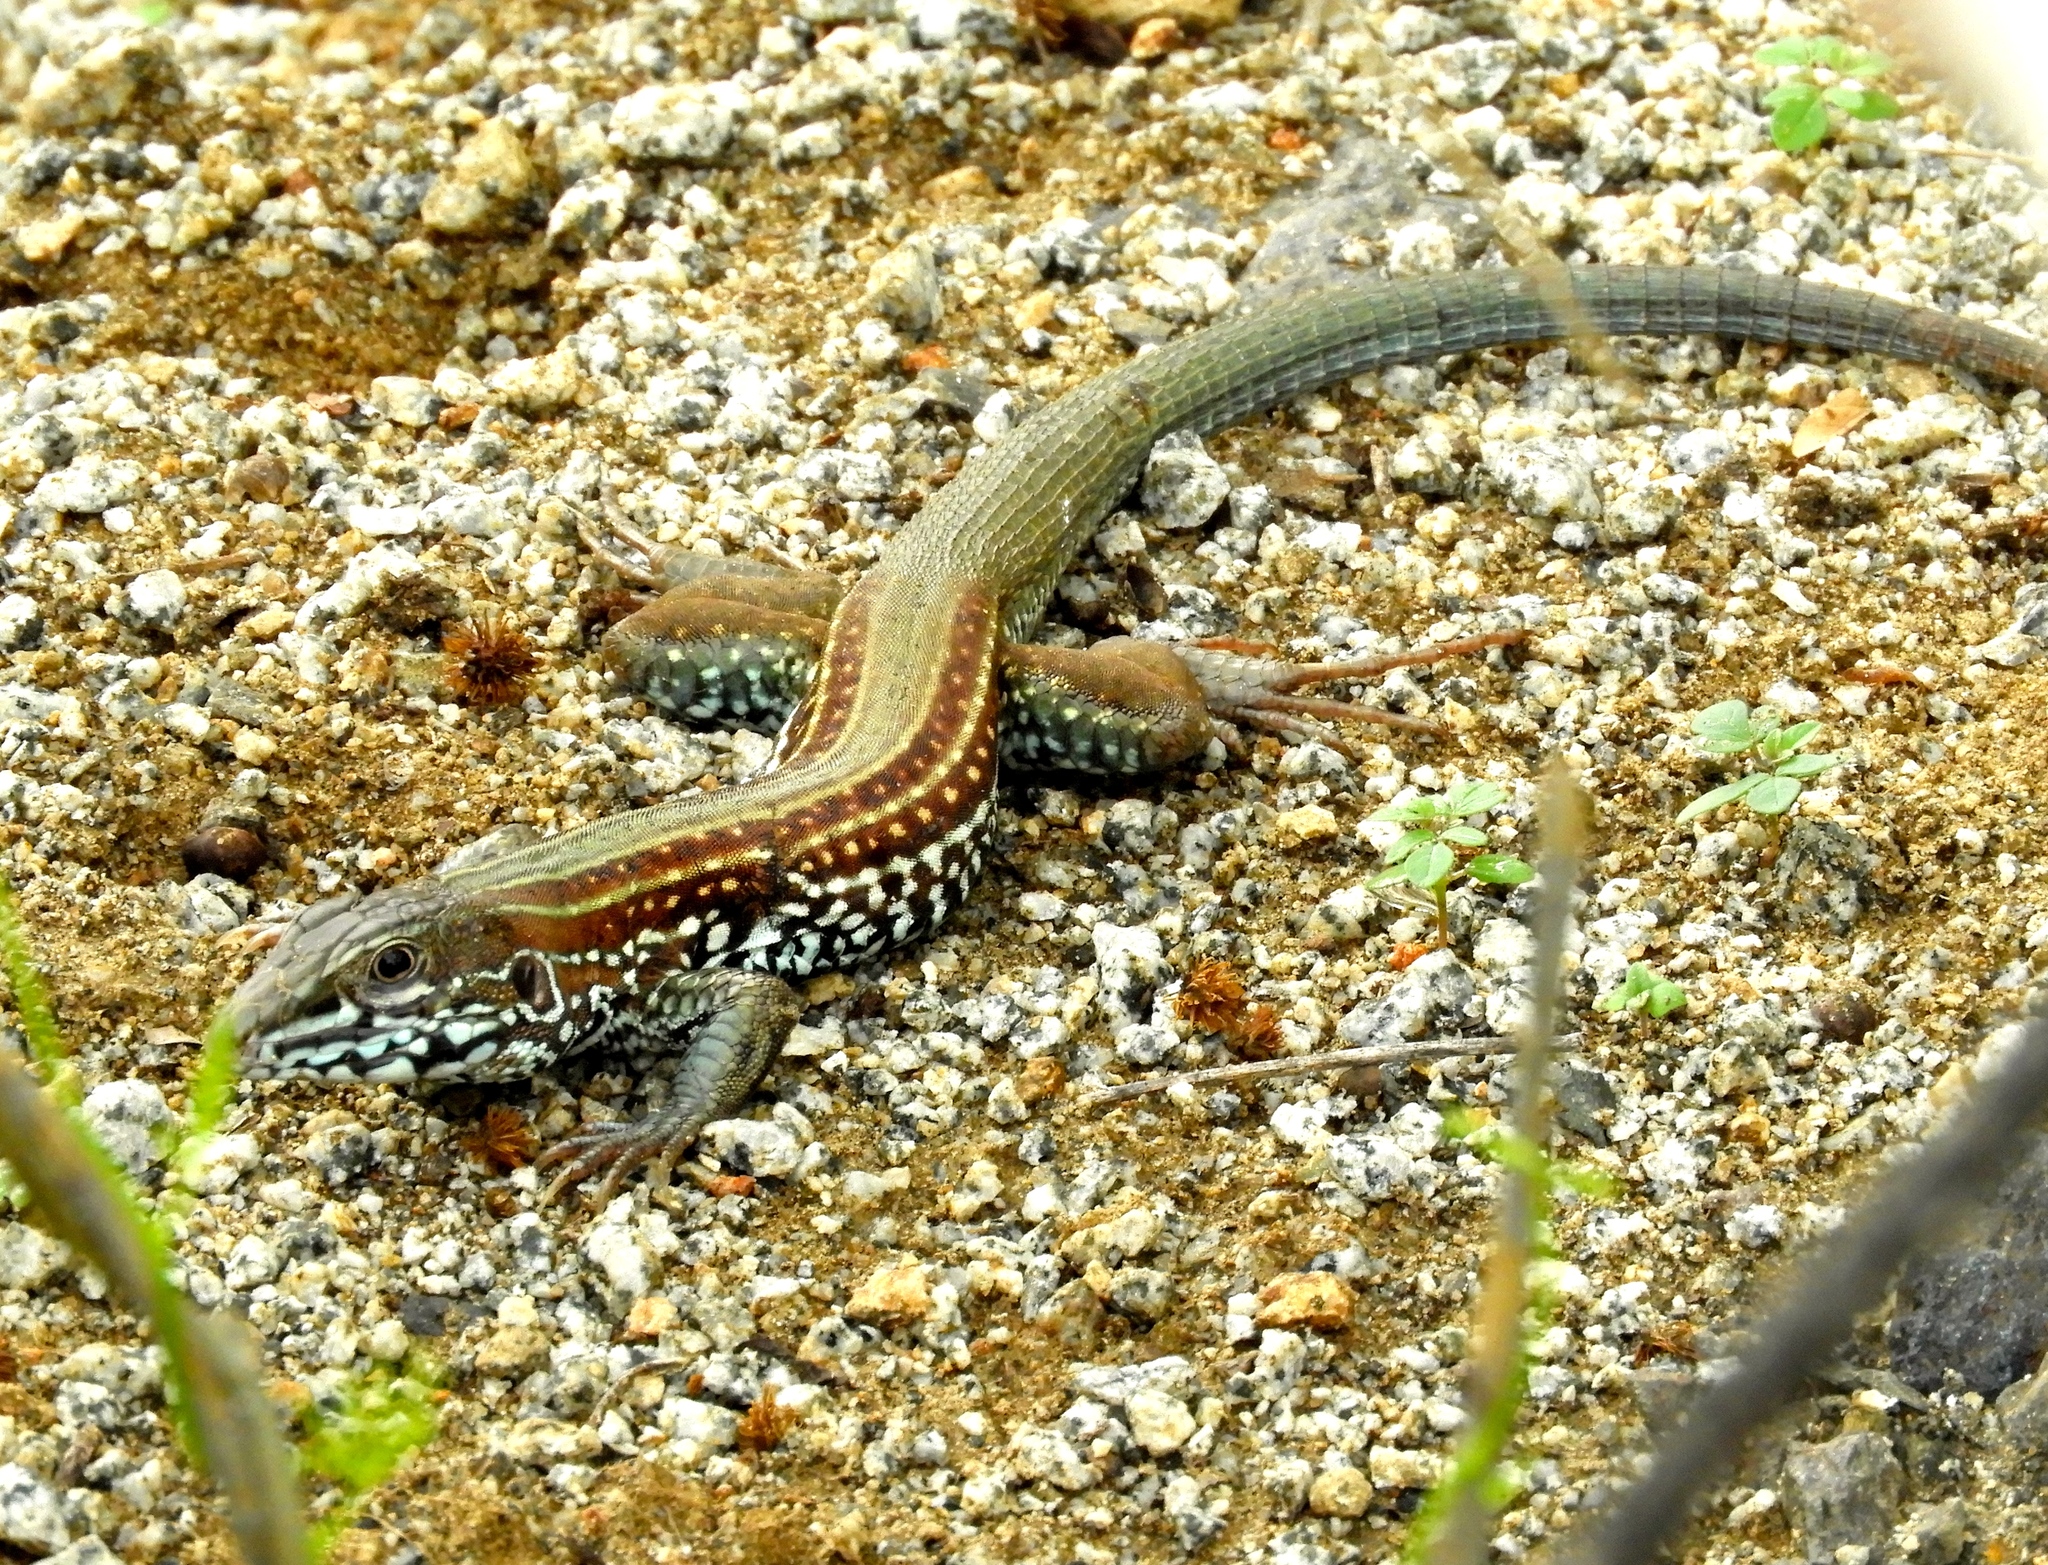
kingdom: Animalia
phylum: Chordata
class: Squamata
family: Teiidae
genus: Aspidoscelis
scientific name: Aspidoscelis costatus
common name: Western mexico whiptail
